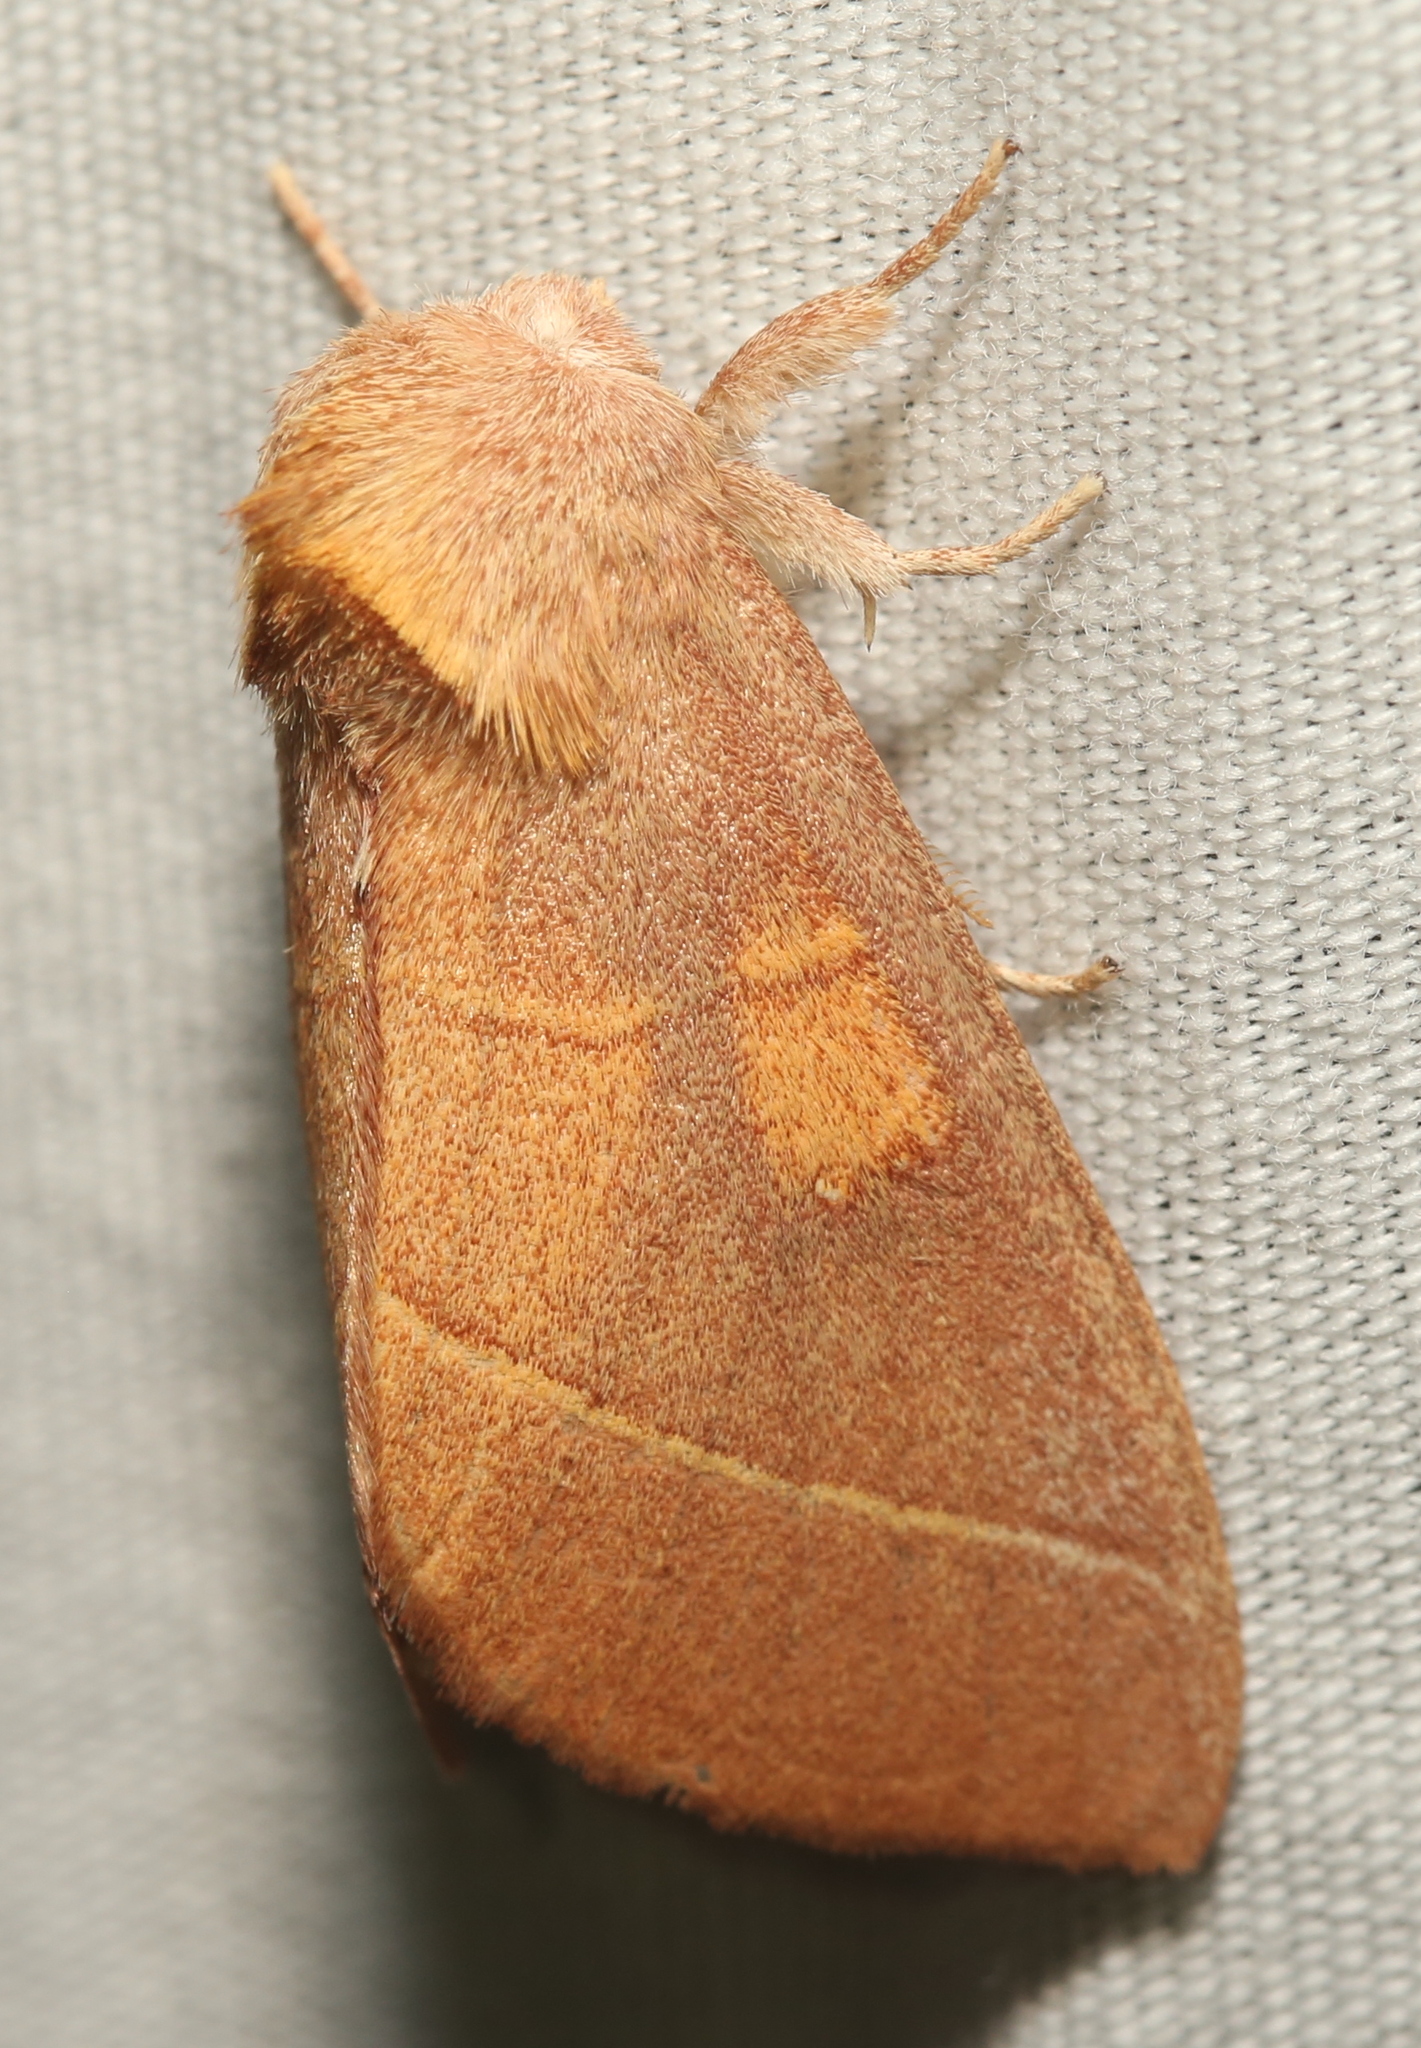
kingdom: Animalia
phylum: Arthropoda
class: Insecta
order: Lepidoptera
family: Notodontidae
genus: Nadata
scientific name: Nadata gibbosa
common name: White-dotted prominent
